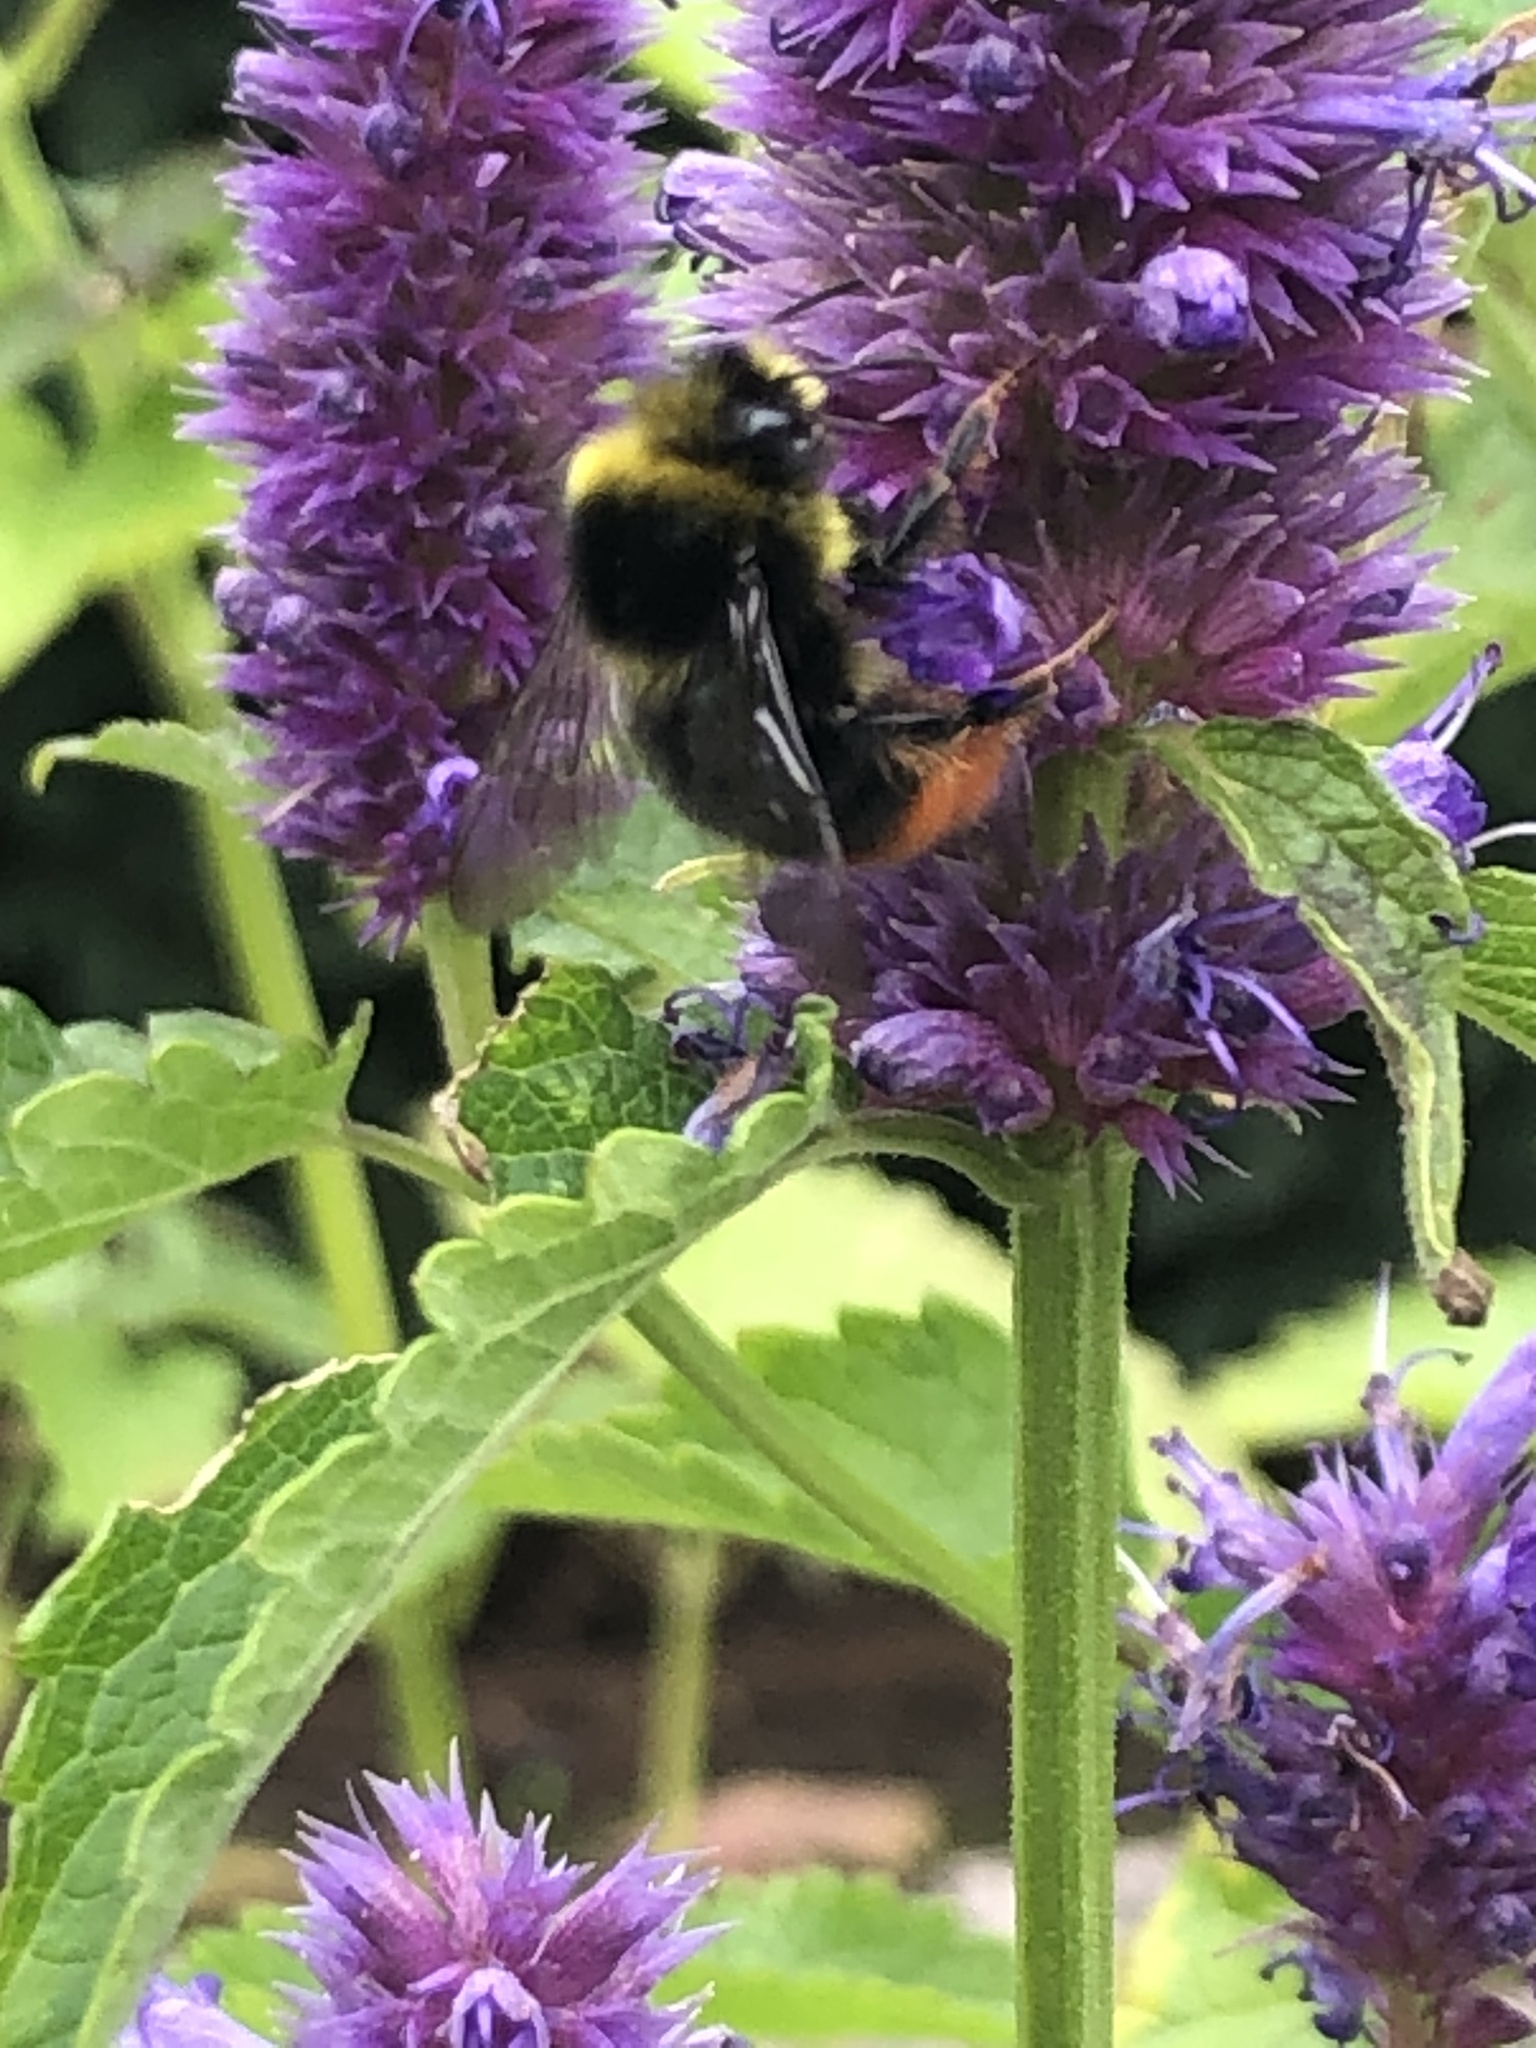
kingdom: Animalia
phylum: Arthropoda
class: Insecta
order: Hymenoptera
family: Apidae
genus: Bombus
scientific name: Bombus lapidarius
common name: Large red-tailed humble-bee
